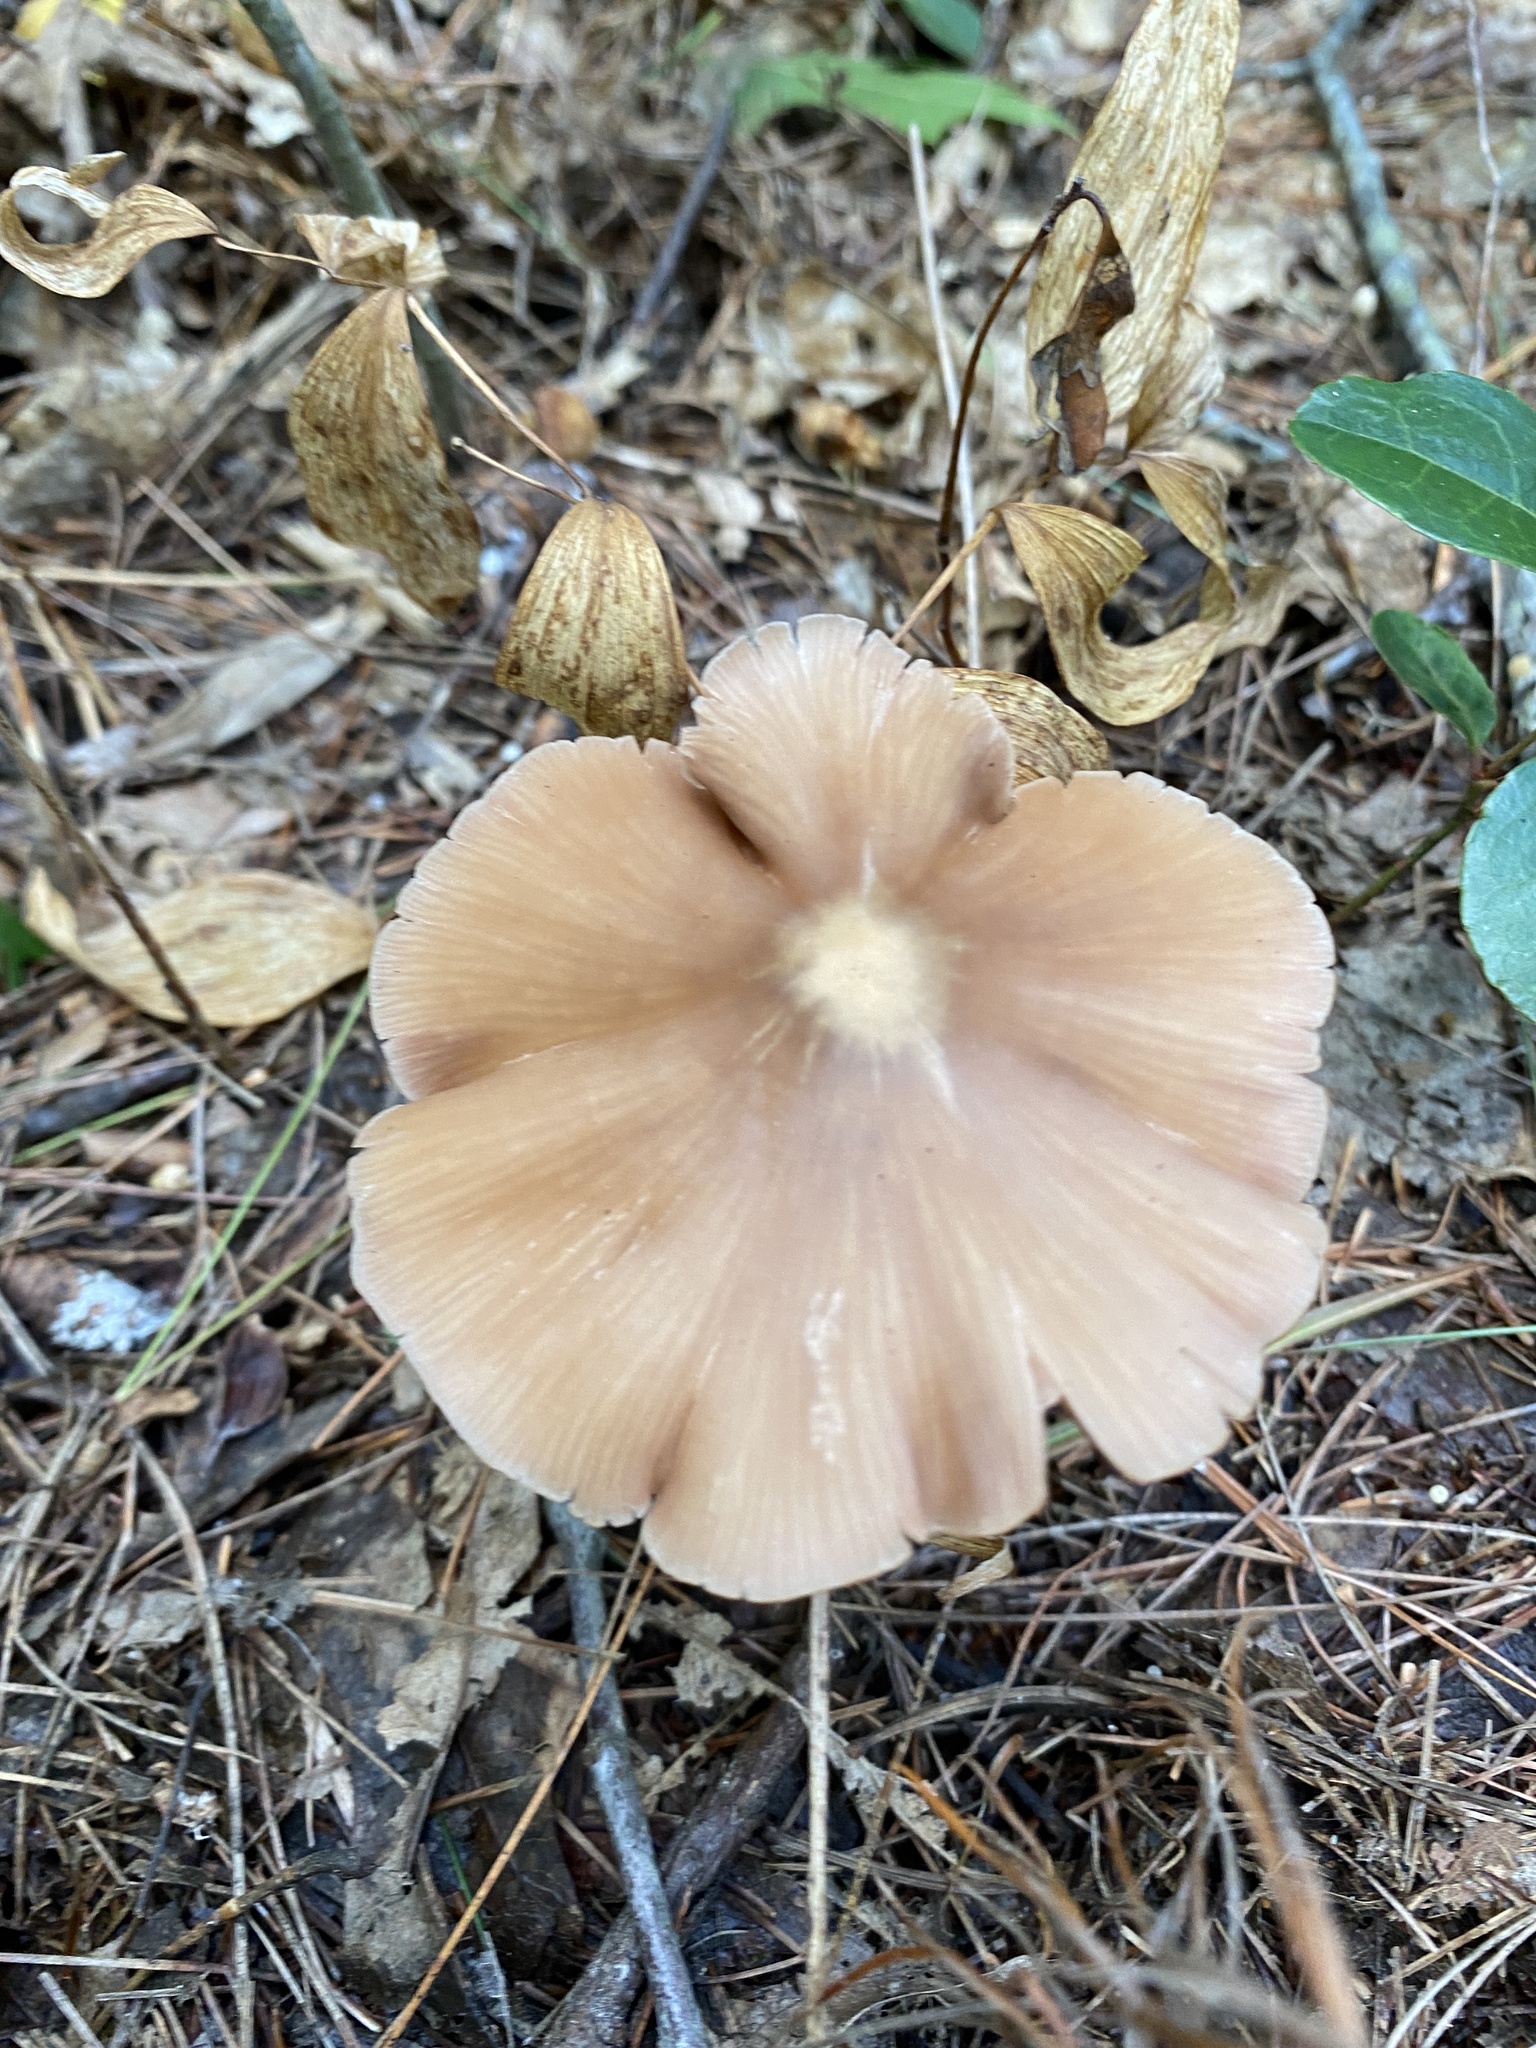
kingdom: Fungi
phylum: Basidiomycota
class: Agaricomycetes
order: Agaricales
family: Entolomataceae
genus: Entoloma
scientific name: Entoloma strictius
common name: Straight-stalked entoloma
